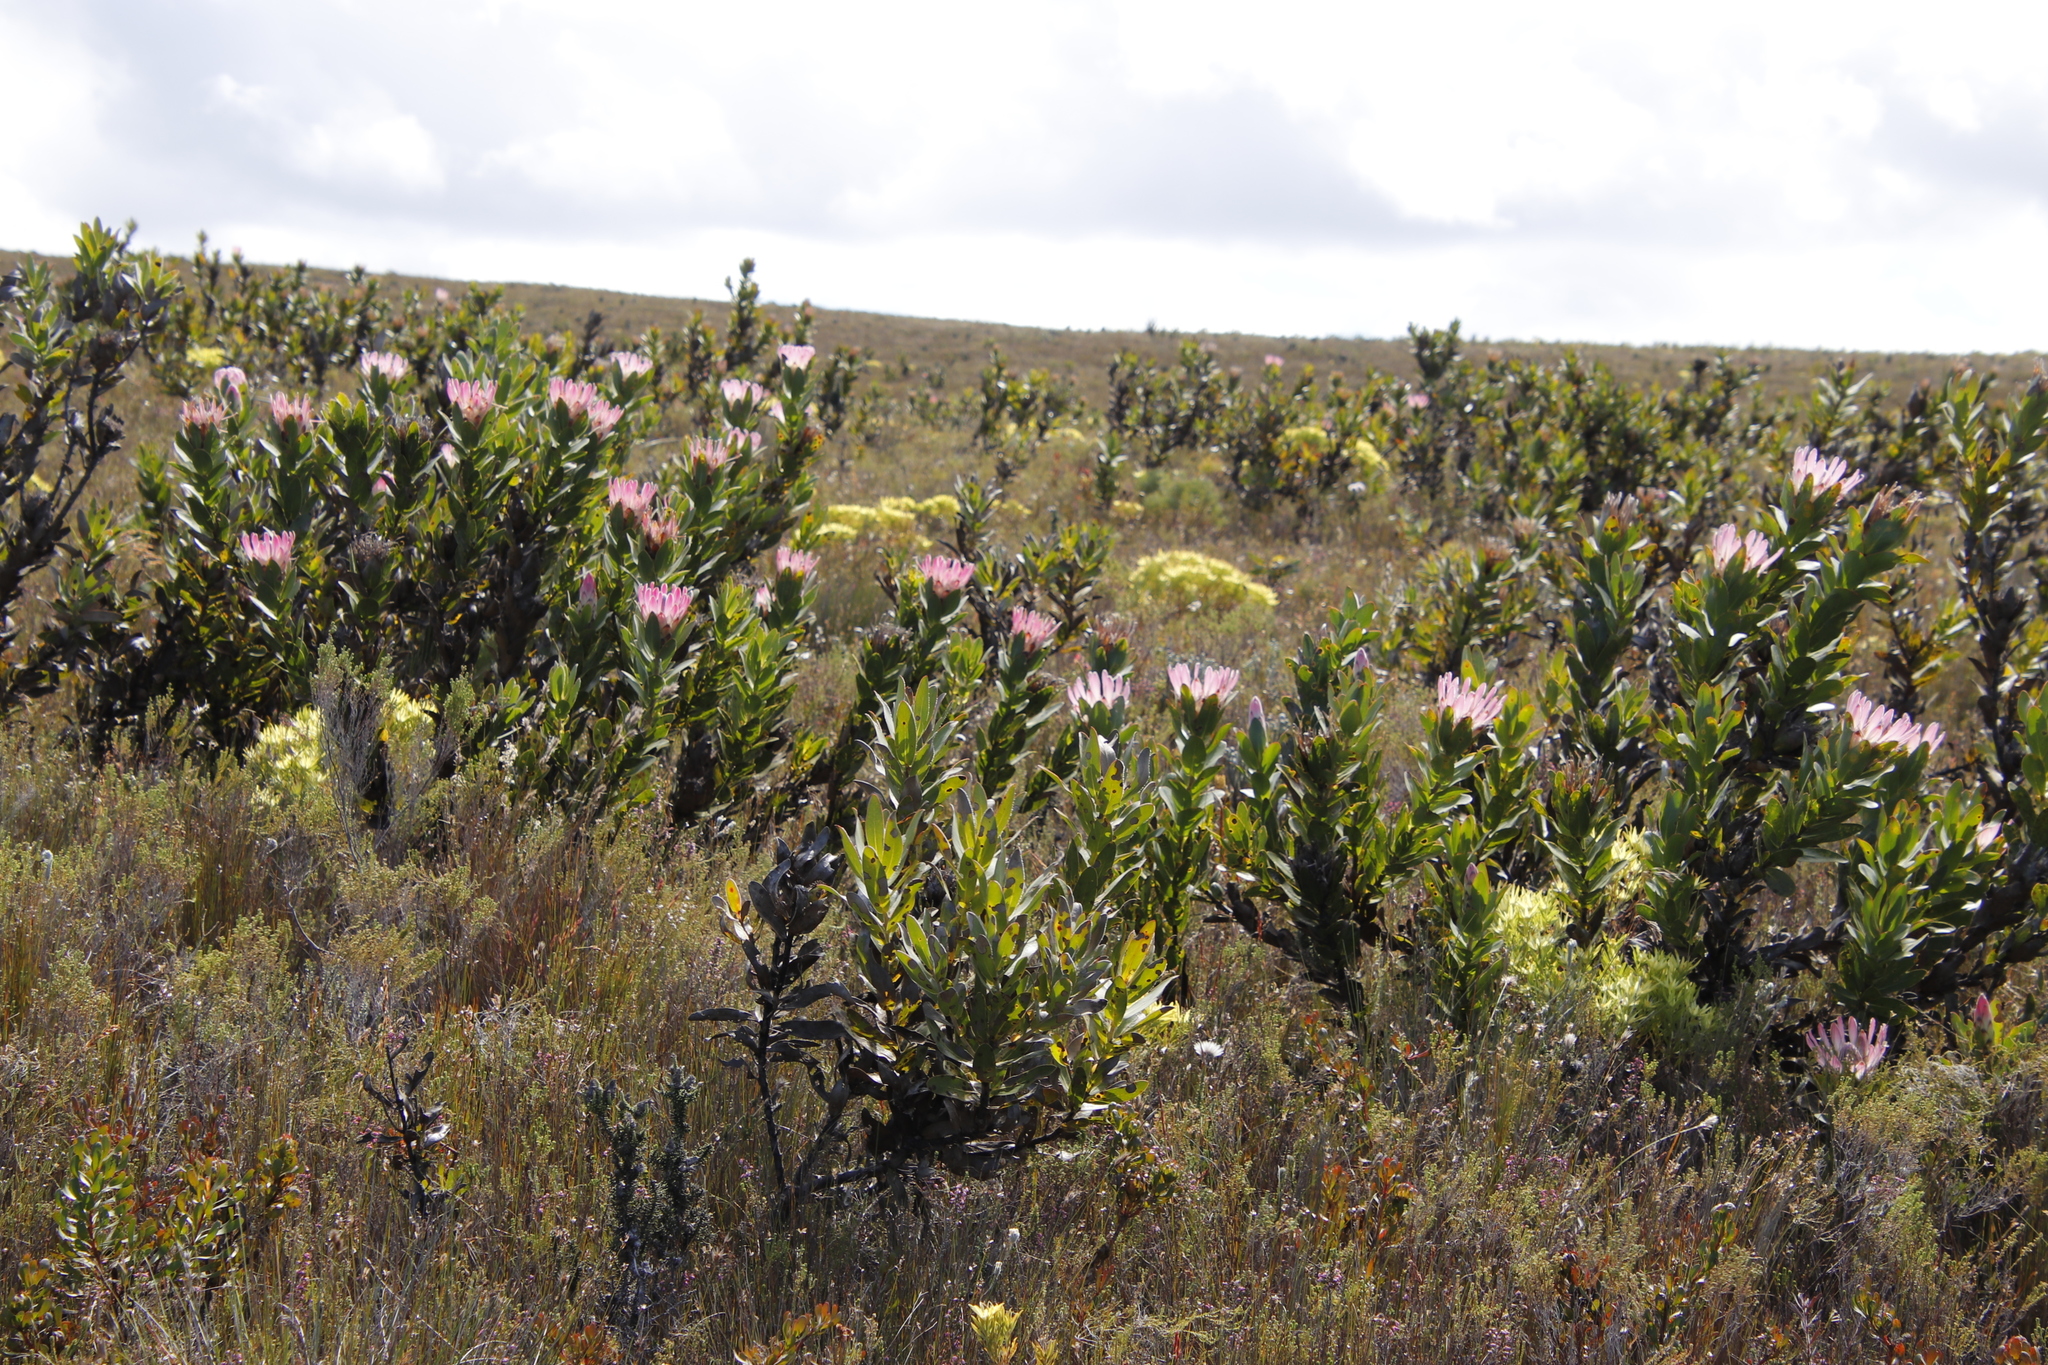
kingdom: Plantae
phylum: Tracheophyta
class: Magnoliopsida
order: Proteales
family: Proteaceae
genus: Protea
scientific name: Protea compacta
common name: Bot river protea
